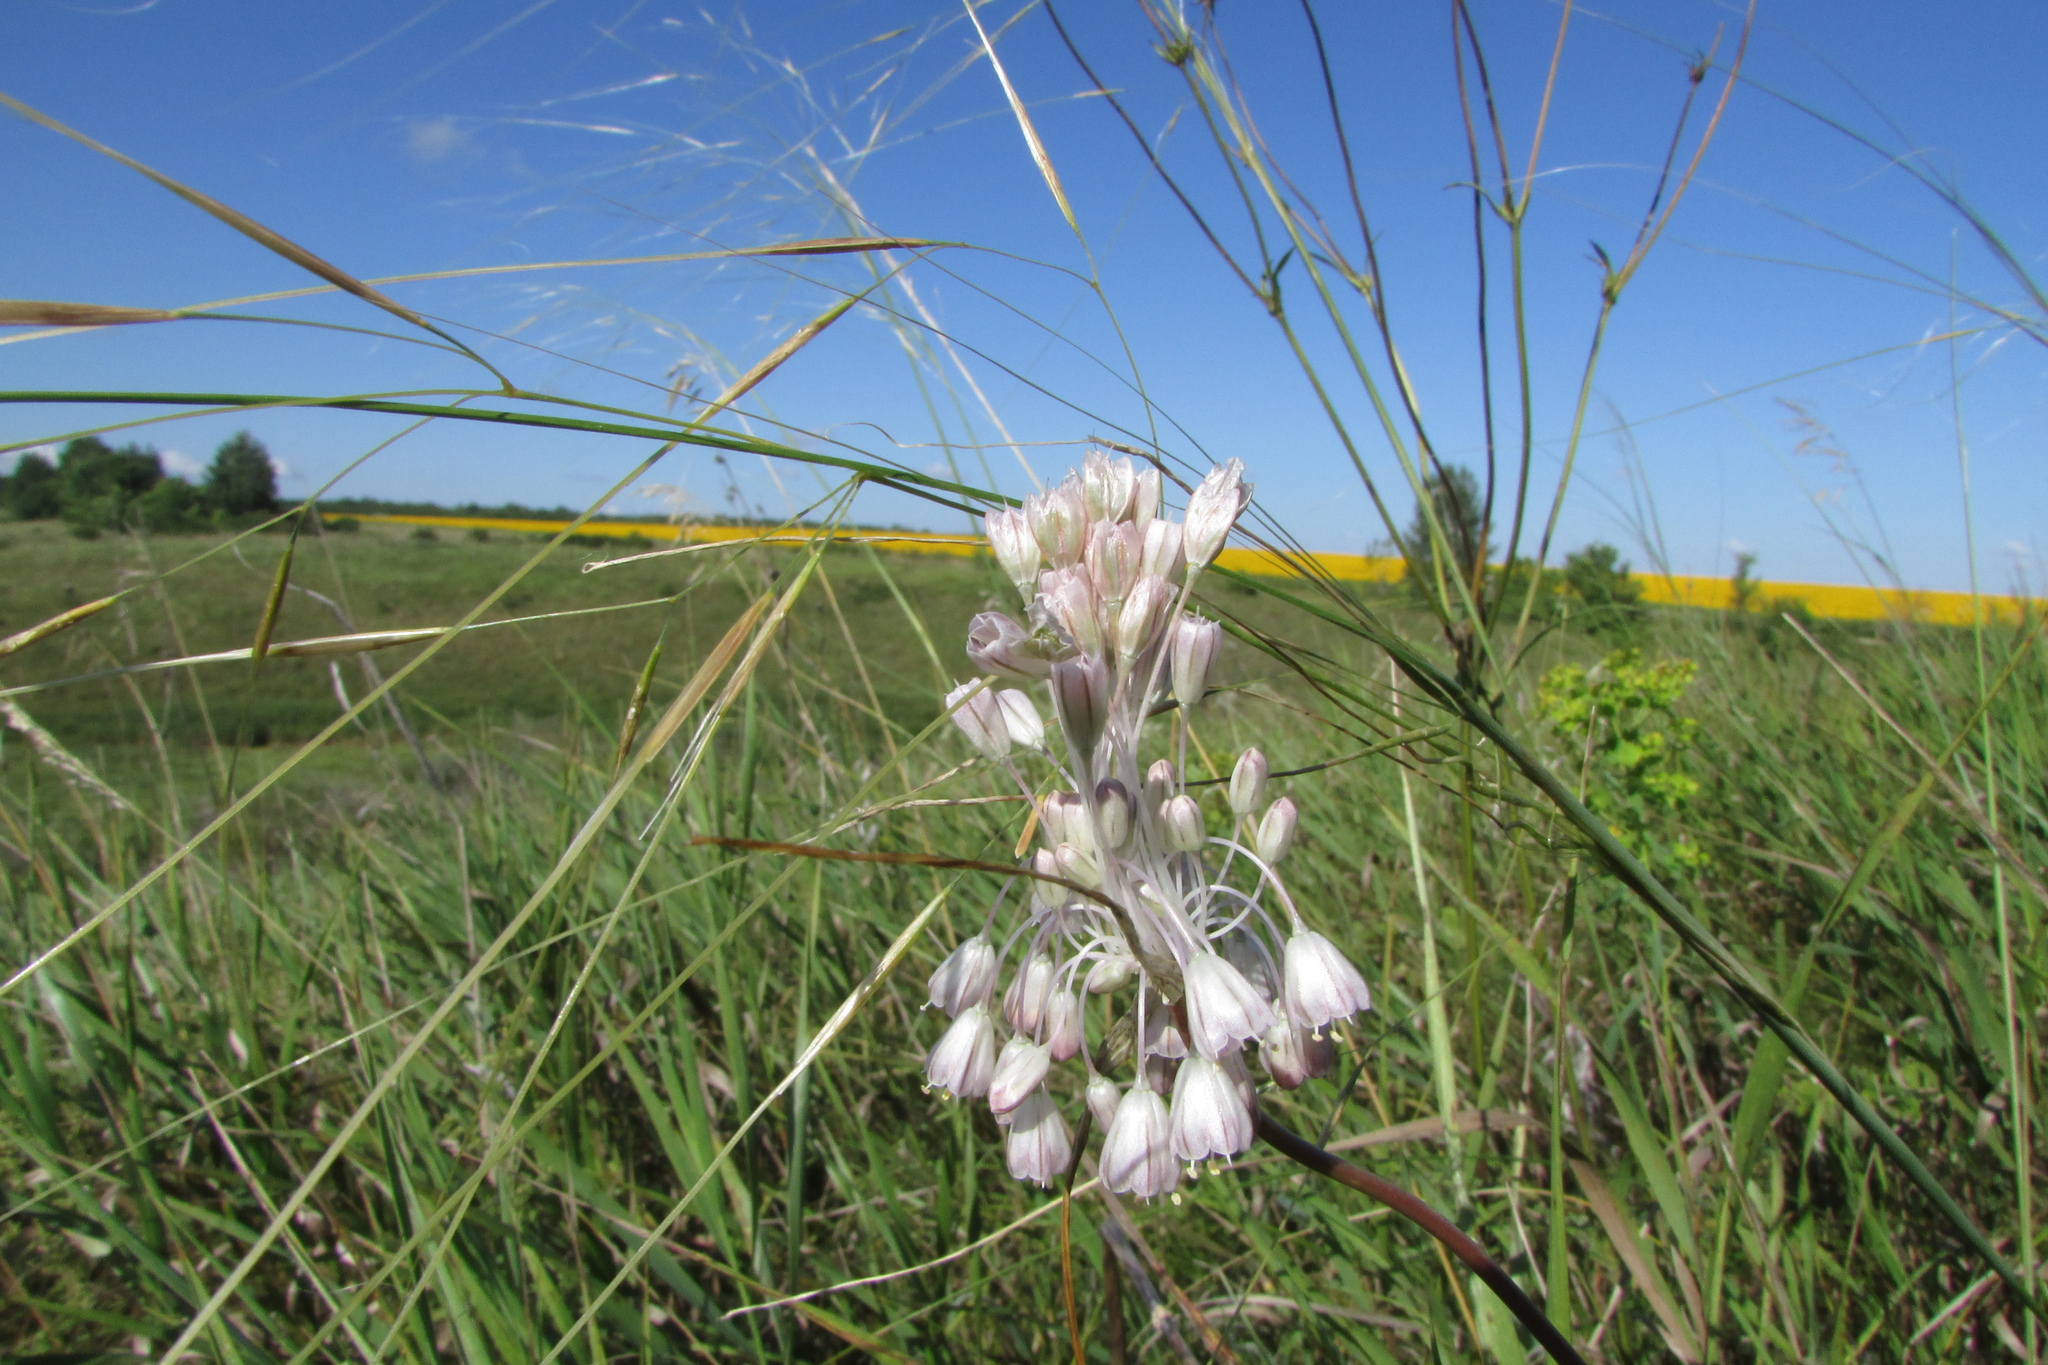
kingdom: Plantae
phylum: Tracheophyta
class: Liliopsida
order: Asparagales
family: Amaryllidaceae
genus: Allium
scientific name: Allium paniculatum
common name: Pale garlic
